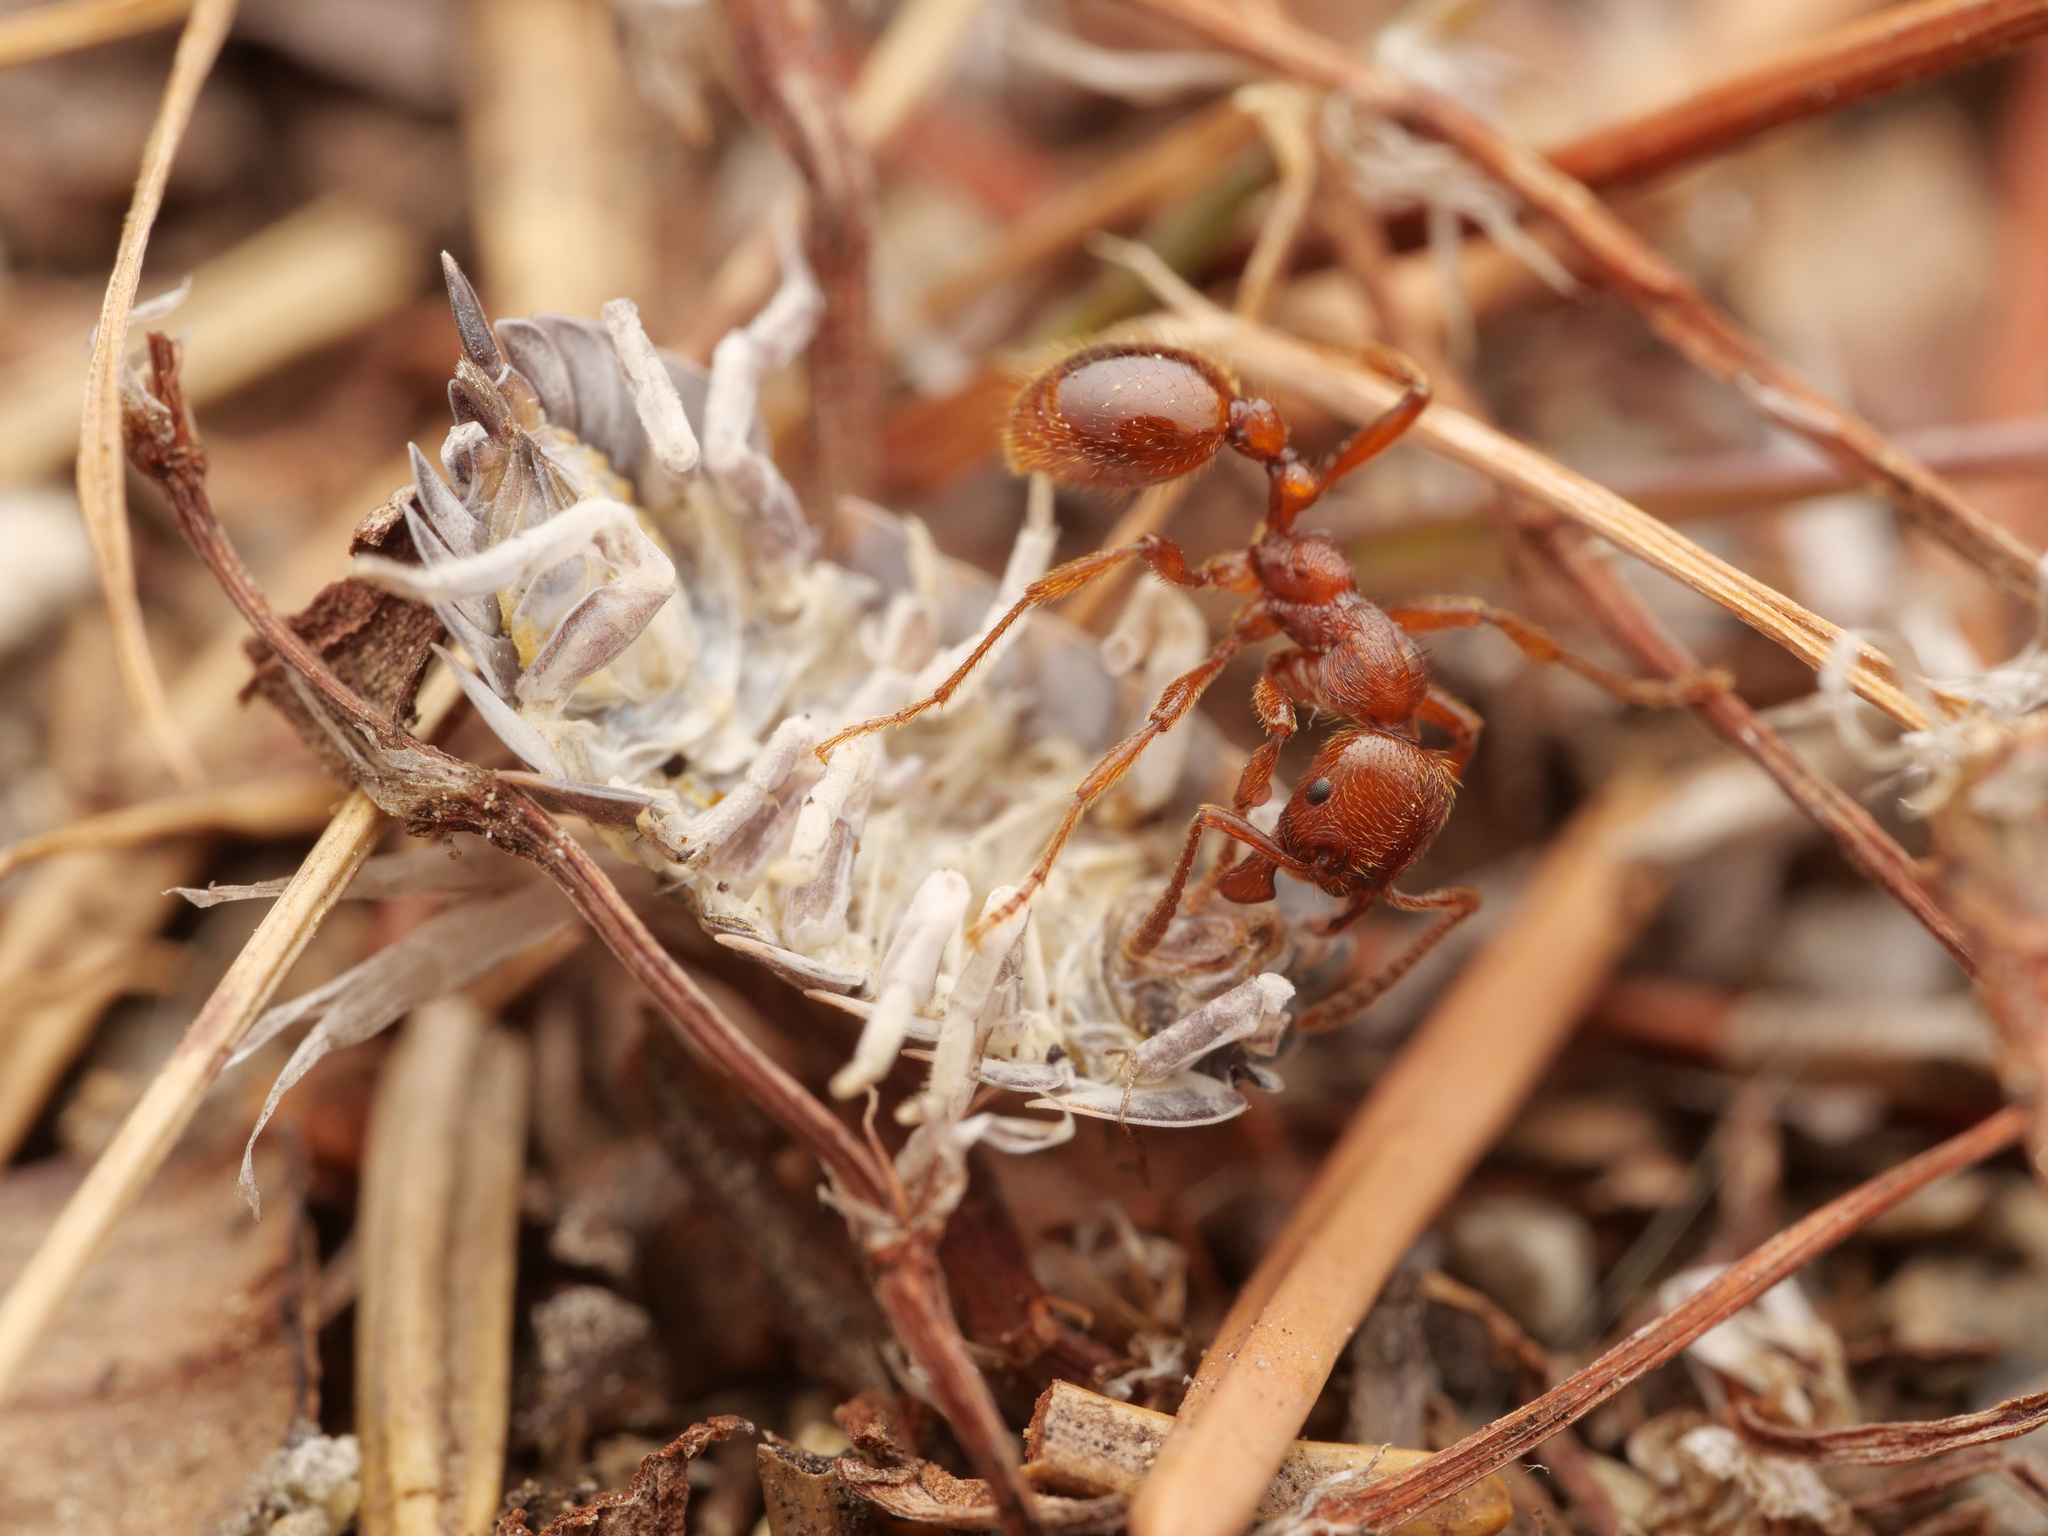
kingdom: Animalia
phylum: Arthropoda
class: Insecta
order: Hymenoptera
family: Formicidae
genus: Manica
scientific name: Manica rubida
